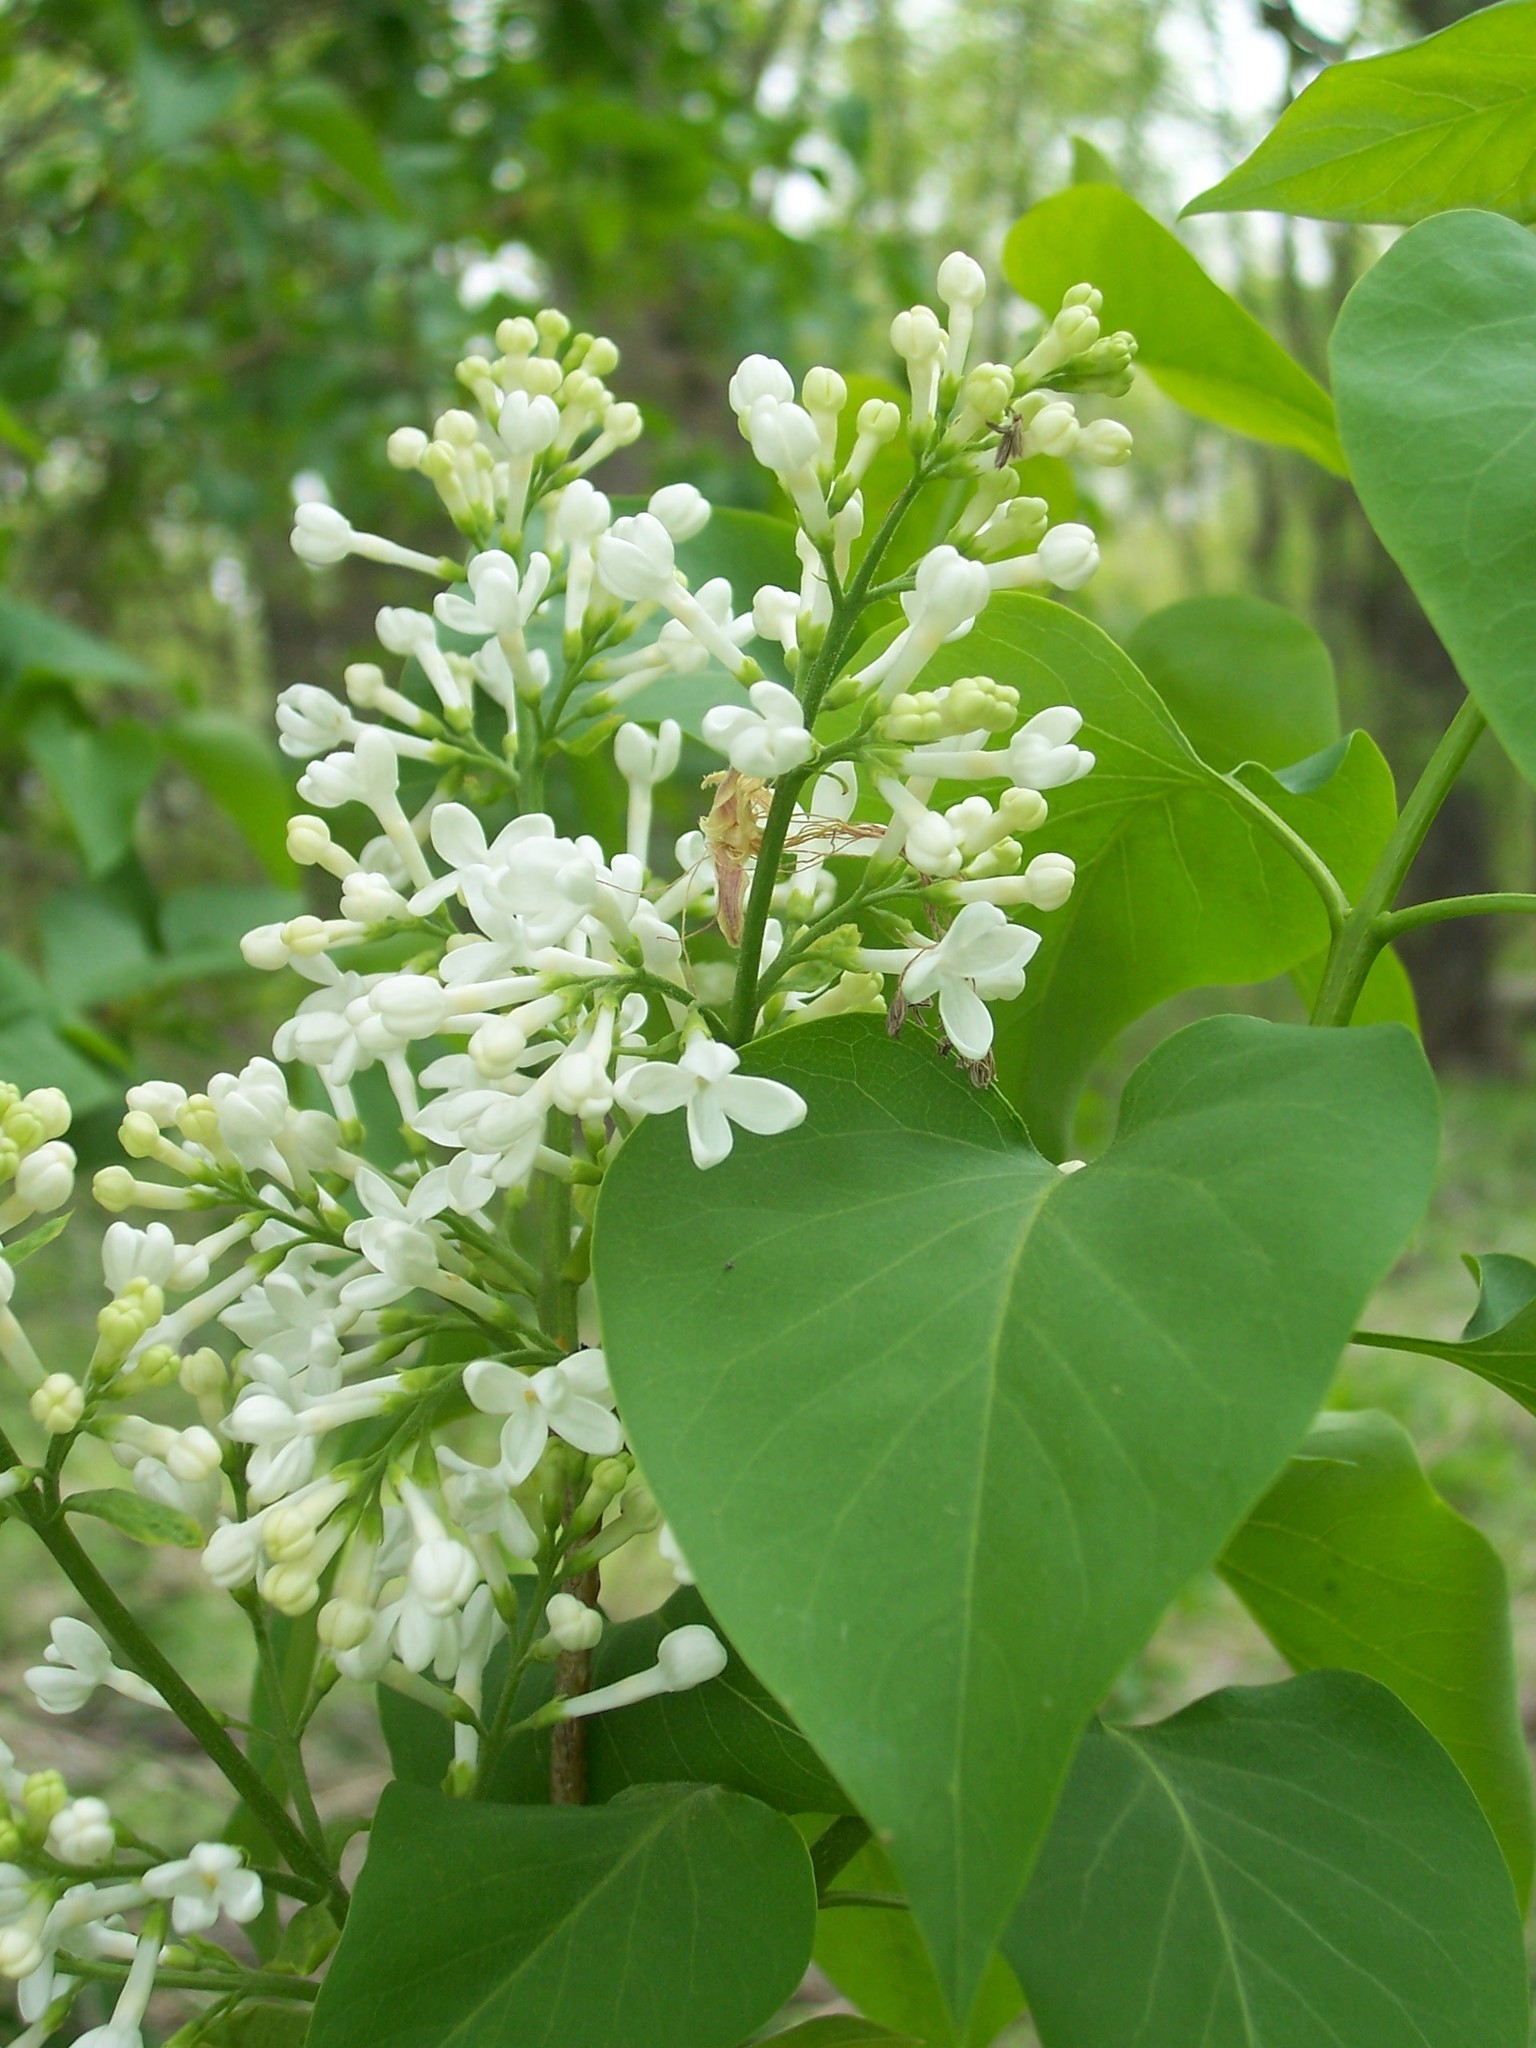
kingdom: Plantae
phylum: Tracheophyta
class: Magnoliopsida
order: Lamiales
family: Oleaceae
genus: Syringa
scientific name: Syringa vulgaris
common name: Common lilac
